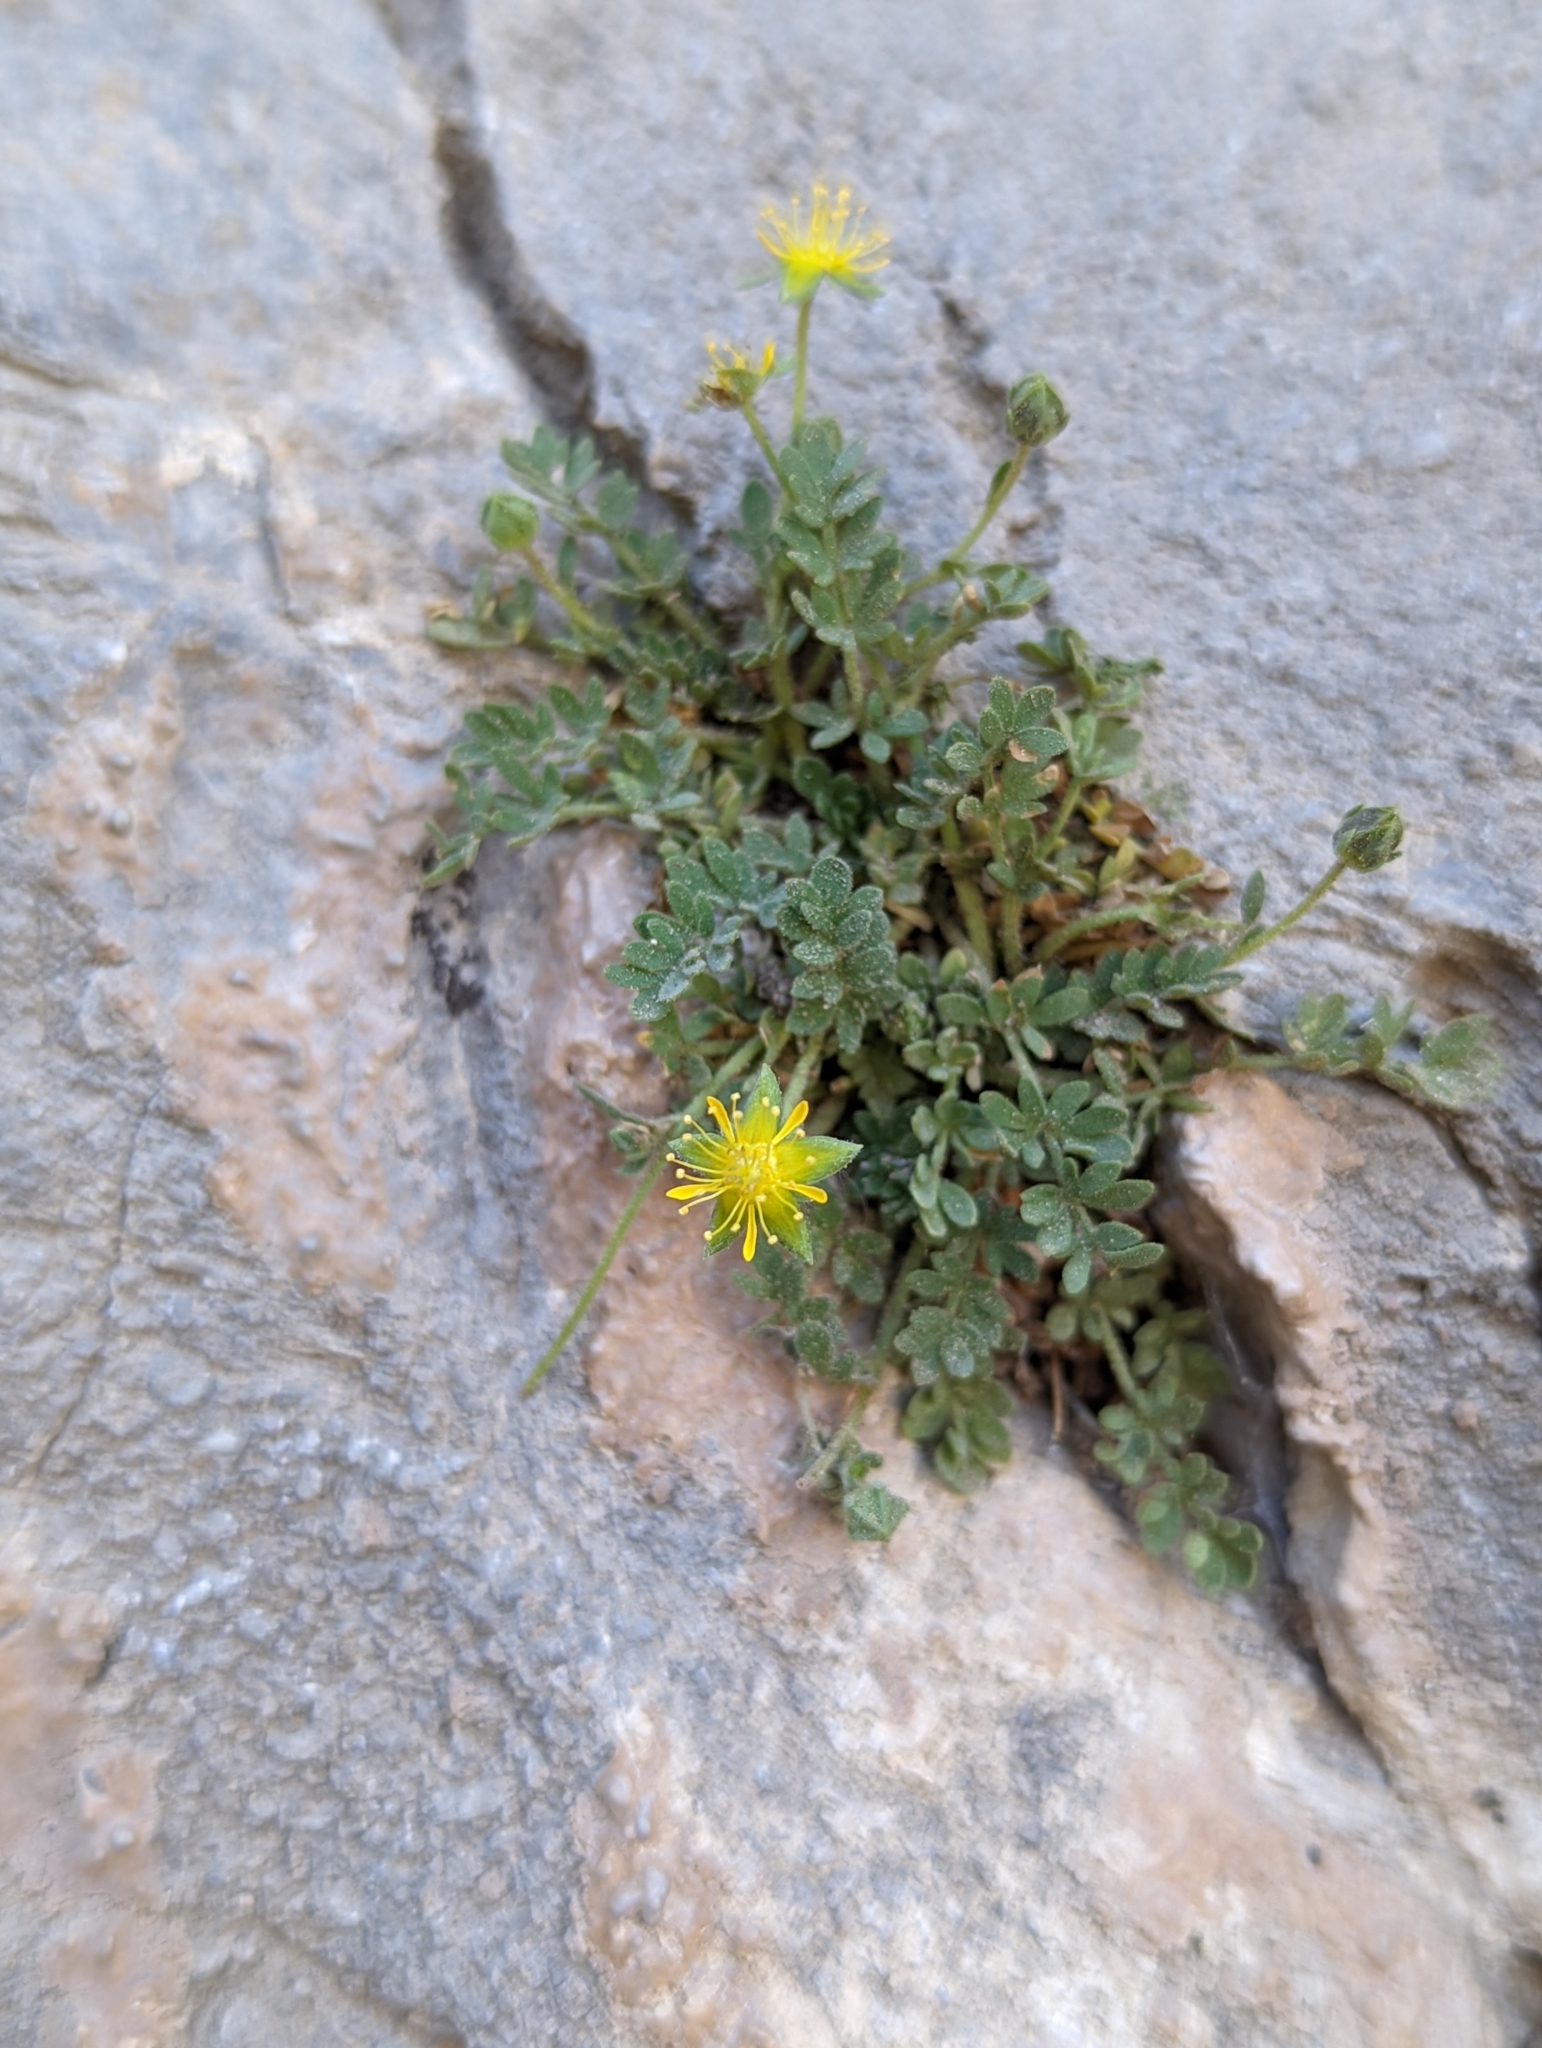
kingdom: Plantae
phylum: Tracheophyta
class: Magnoliopsida
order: Rosales
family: Rosaceae
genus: Potentilla
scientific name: Potentilla jaegeri
